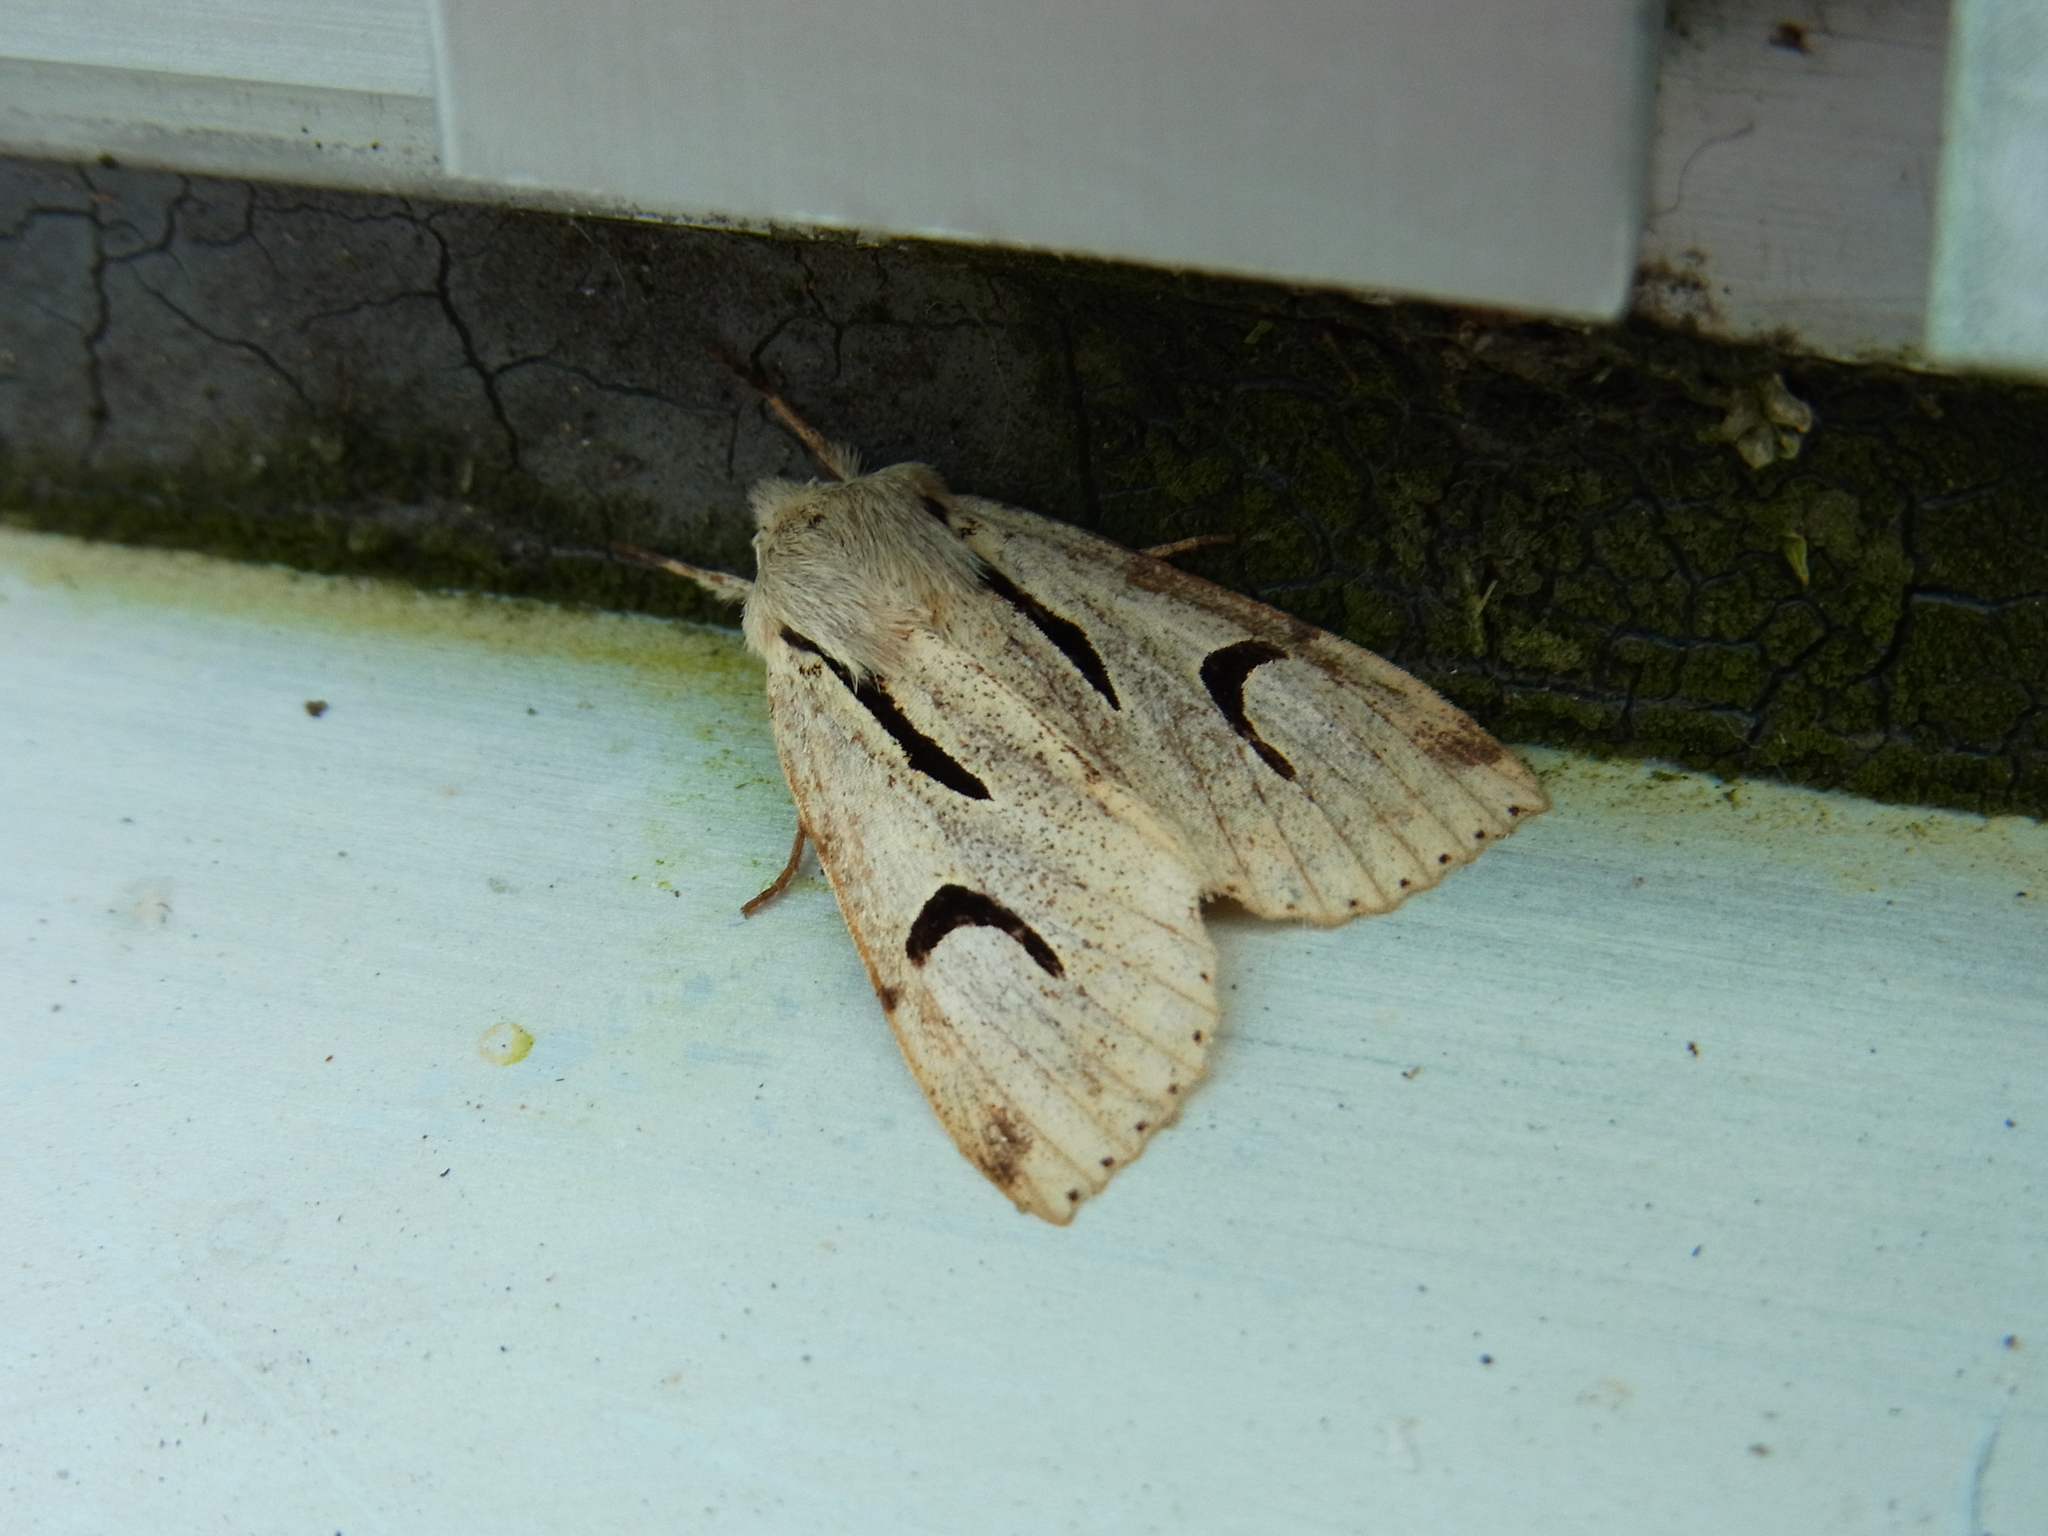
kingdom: Animalia
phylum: Arthropoda
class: Insecta
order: Lepidoptera
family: Noctuidae
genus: Orthosia
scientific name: Orthosia nigromaculata
